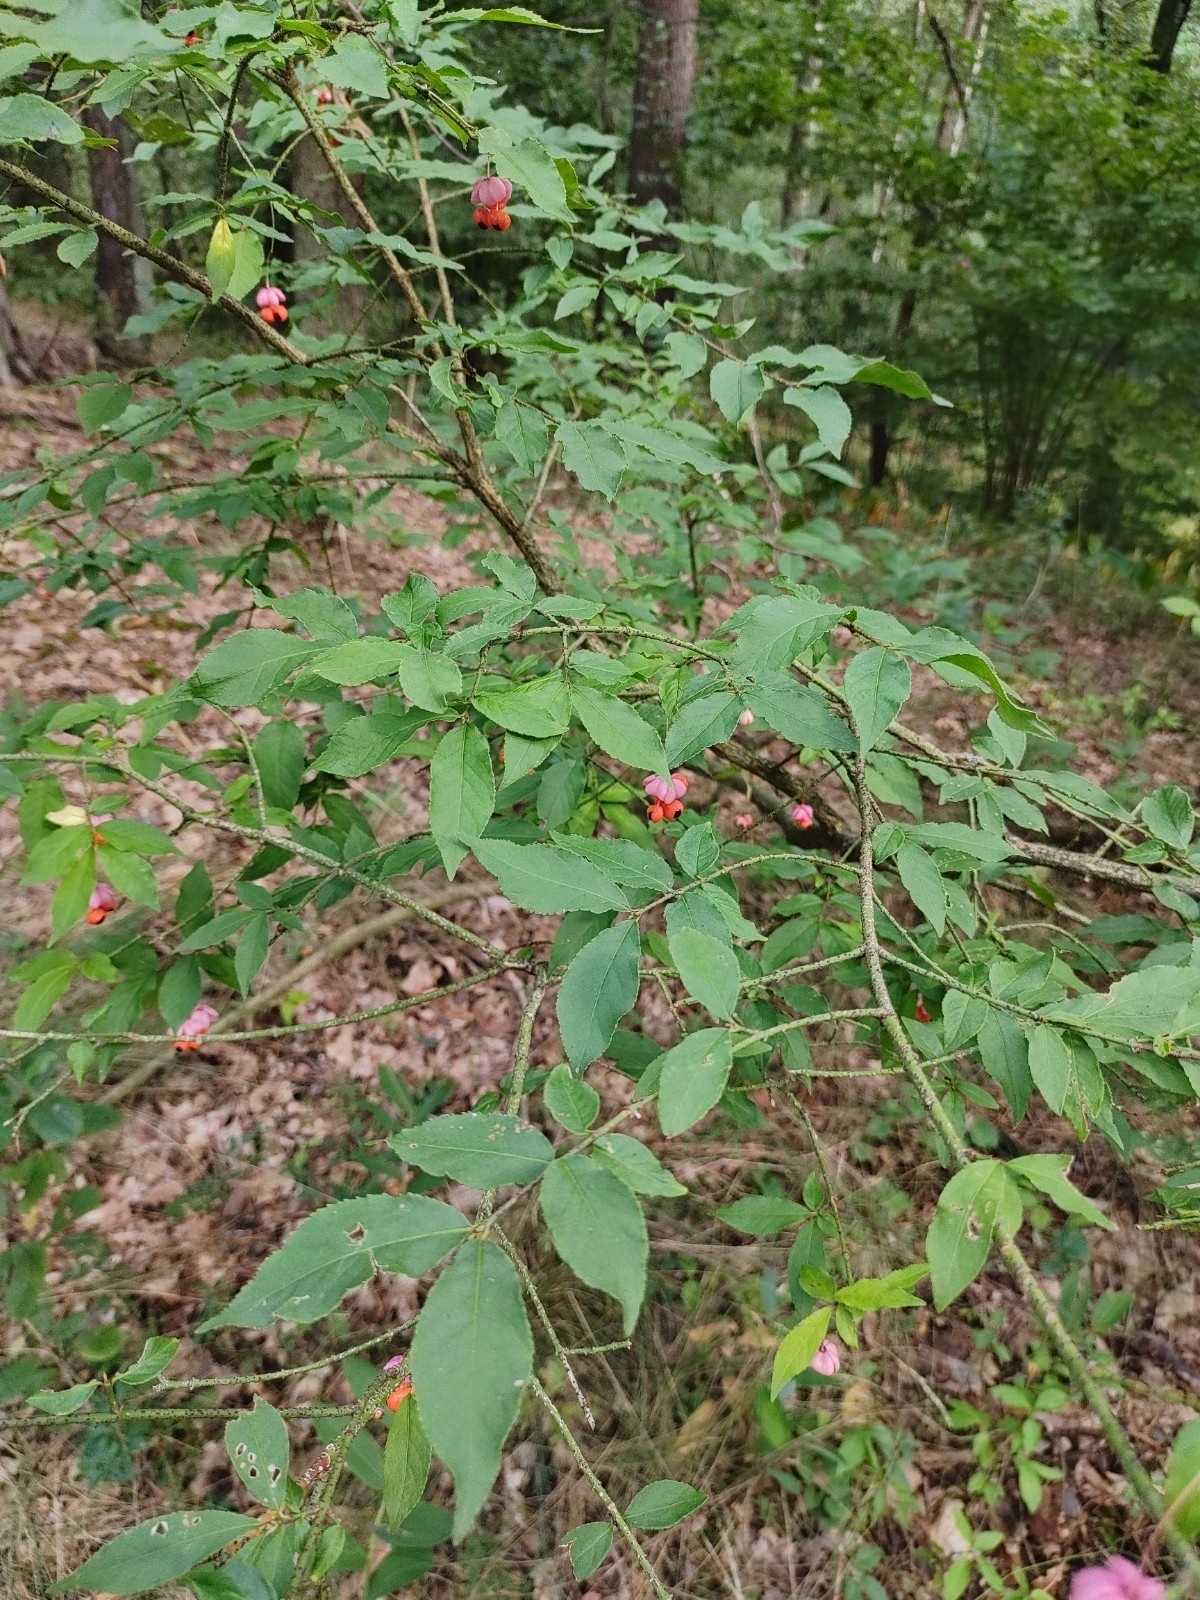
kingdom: Plantae
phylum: Tracheophyta
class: Magnoliopsida
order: Celastrales
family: Celastraceae
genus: Euonymus
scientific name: Euonymus verrucosus
